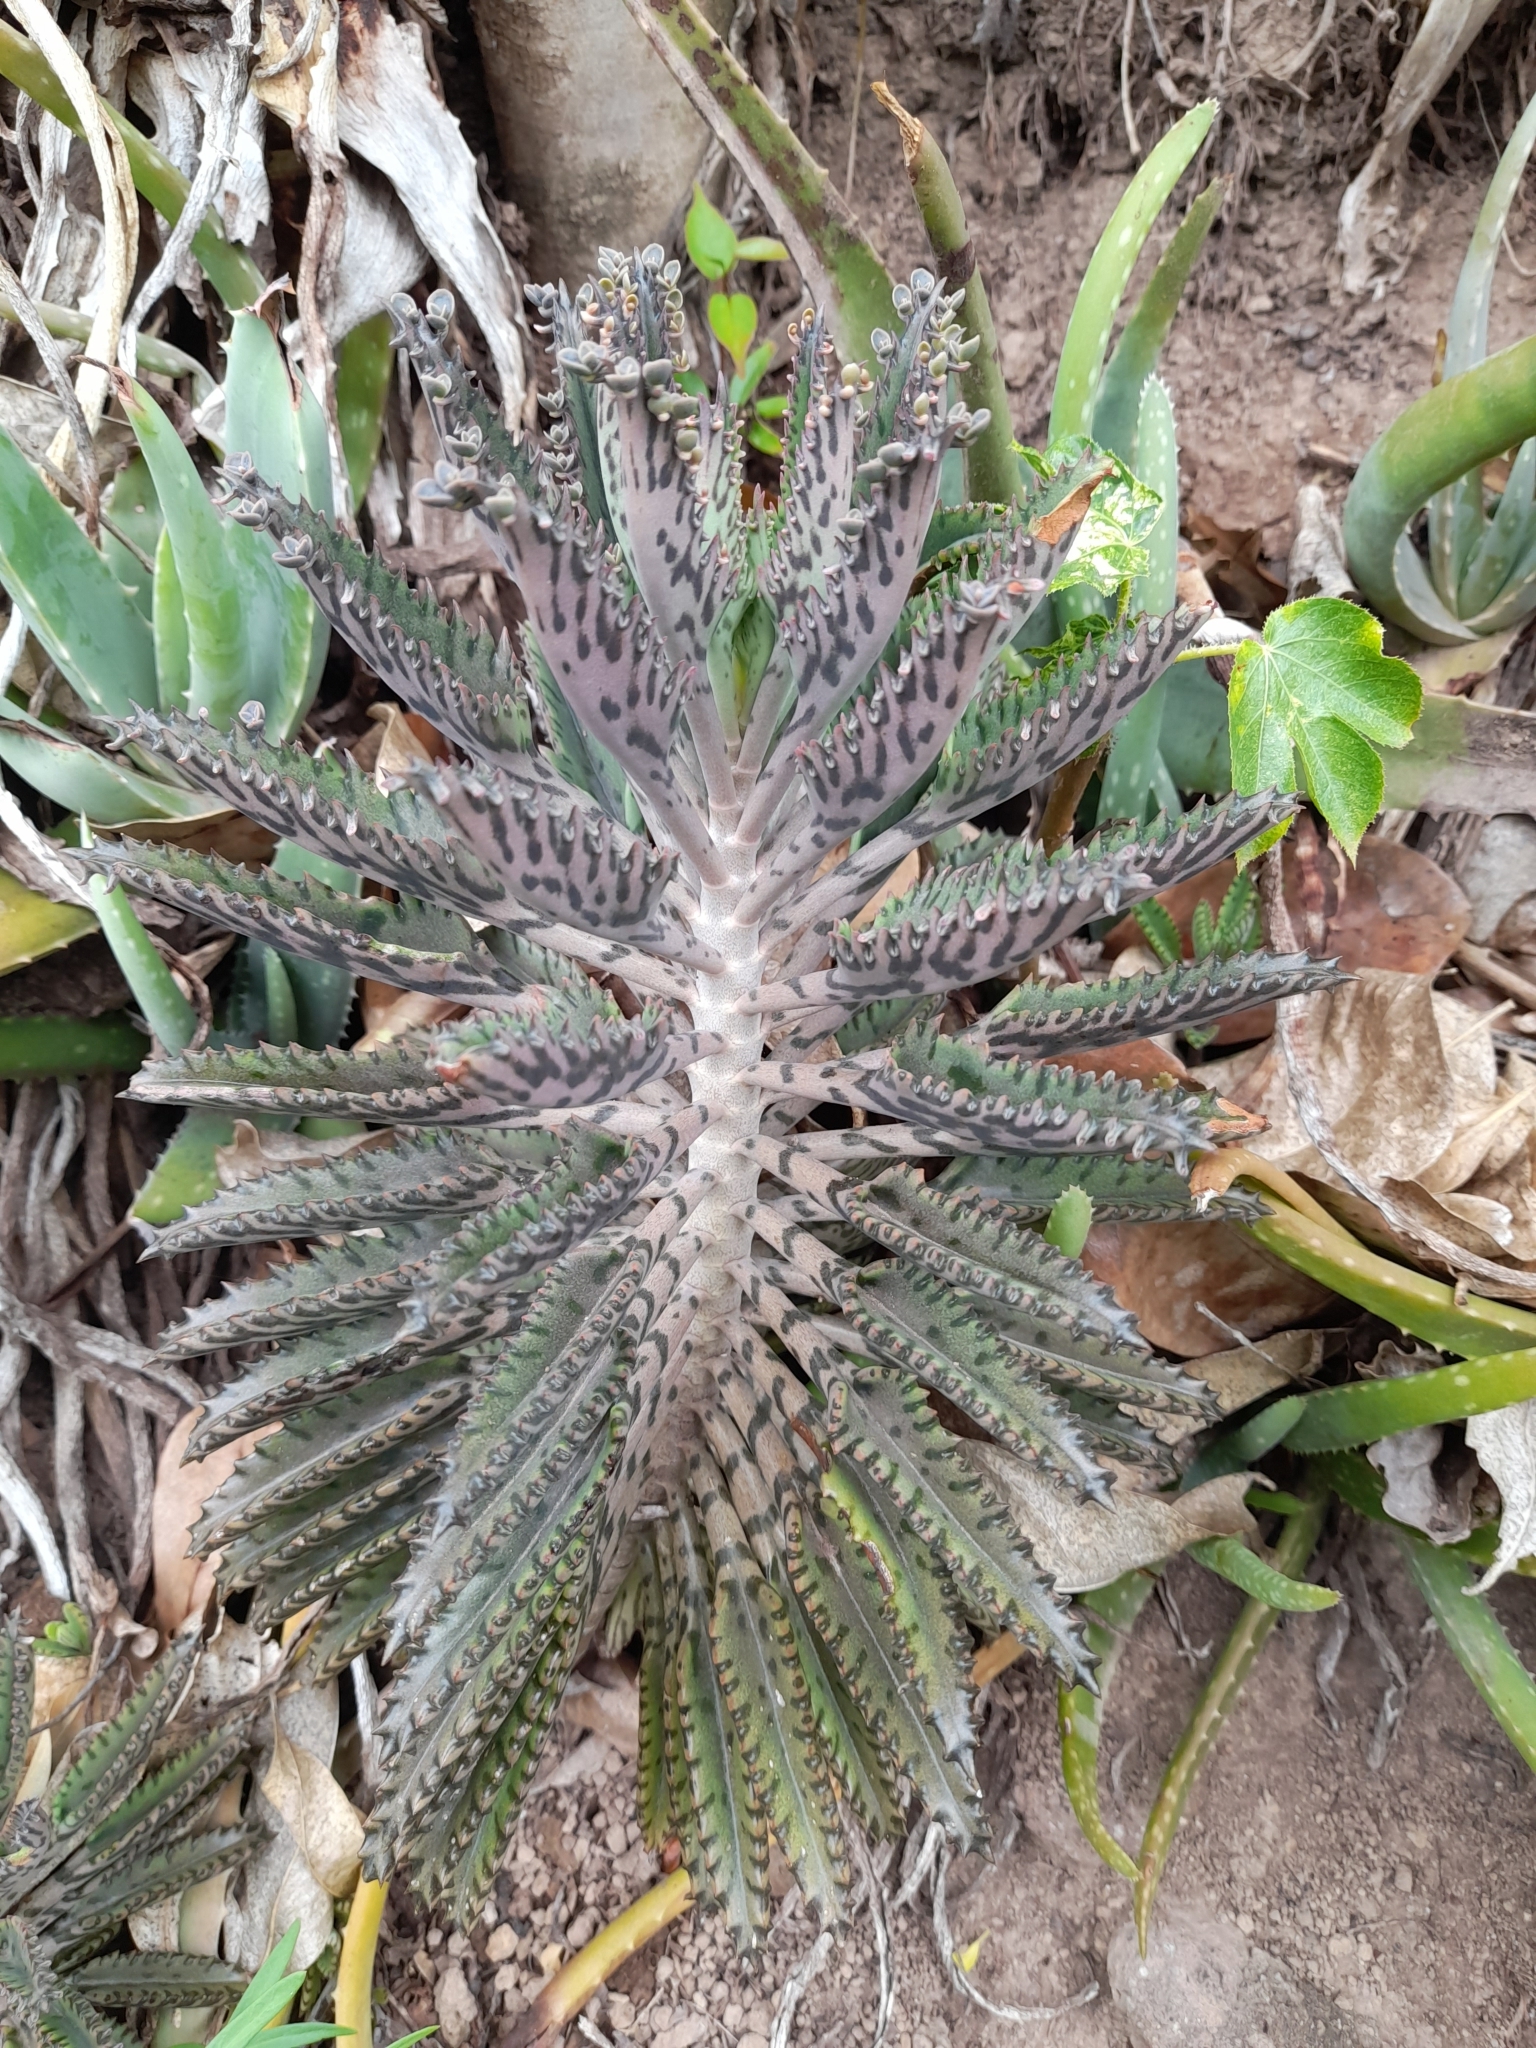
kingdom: Plantae
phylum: Tracheophyta
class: Magnoliopsida
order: Saxifragales
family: Crassulaceae
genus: Kalanchoe
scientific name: Kalanchoe houghtonii
